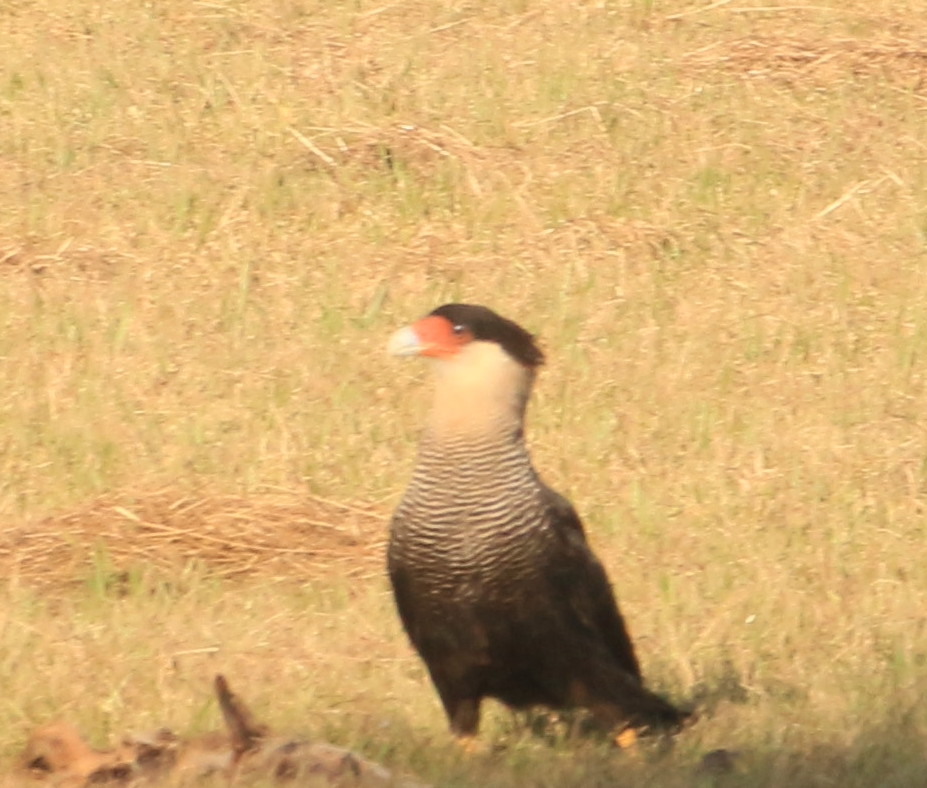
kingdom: Animalia
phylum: Chordata
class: Aves
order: Falconiformes
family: Falconidae
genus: Caracara
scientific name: Caracara plancus
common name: Southern caracara
